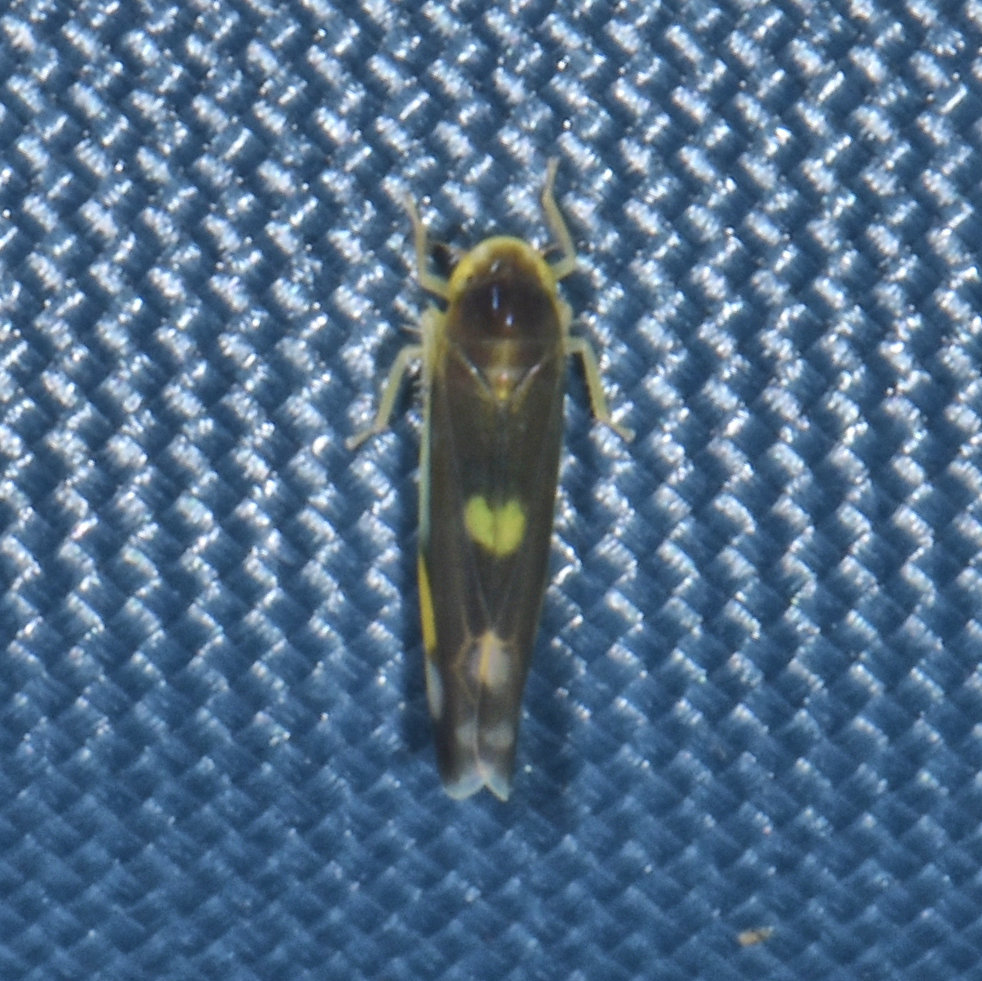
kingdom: Animalia
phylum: Arthropoda
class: Insecta
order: Hemiptera
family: Cicadellidae
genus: Eupteryx
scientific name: Eupteryx flavoscuta
